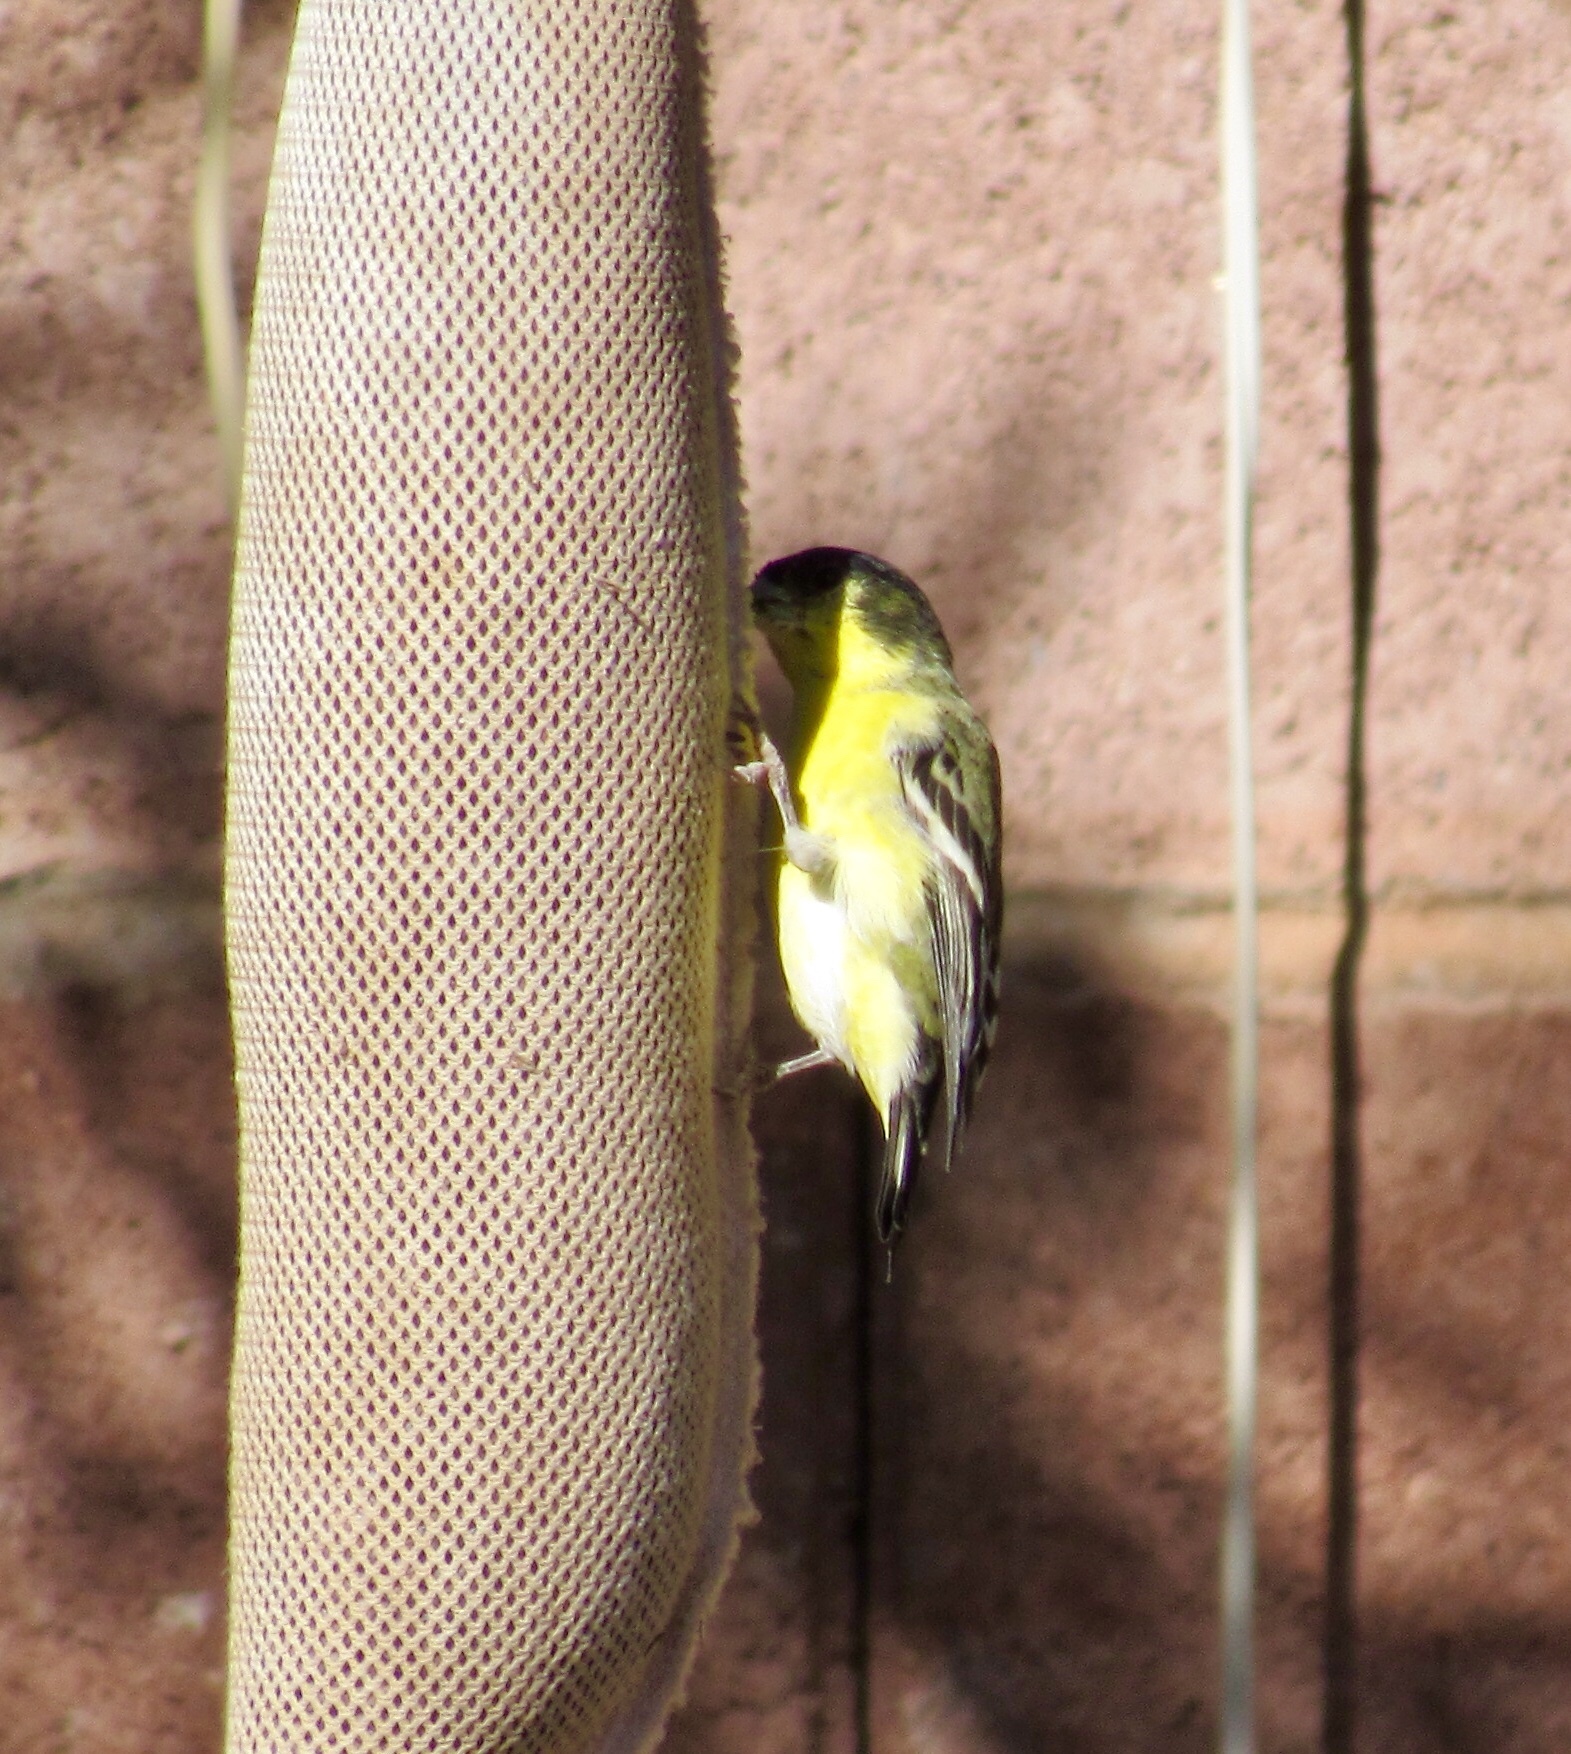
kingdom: Animalia
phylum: Chordata
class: Aves
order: Passeriformes
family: Fringillidae
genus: Spinus
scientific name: Spinus psaltria
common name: Lesser goldfinch
